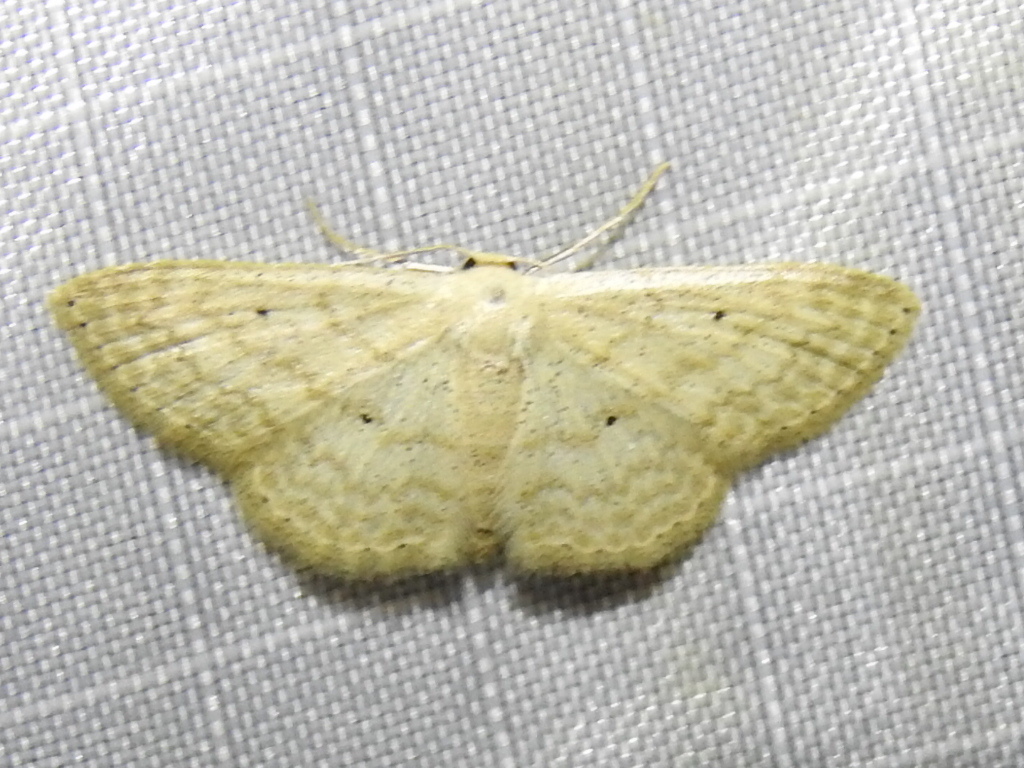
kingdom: Animalia
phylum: Arthropoda
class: Insecta
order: Lepidoptera
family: Geometridae
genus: Scopula
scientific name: Scopula benitaria
